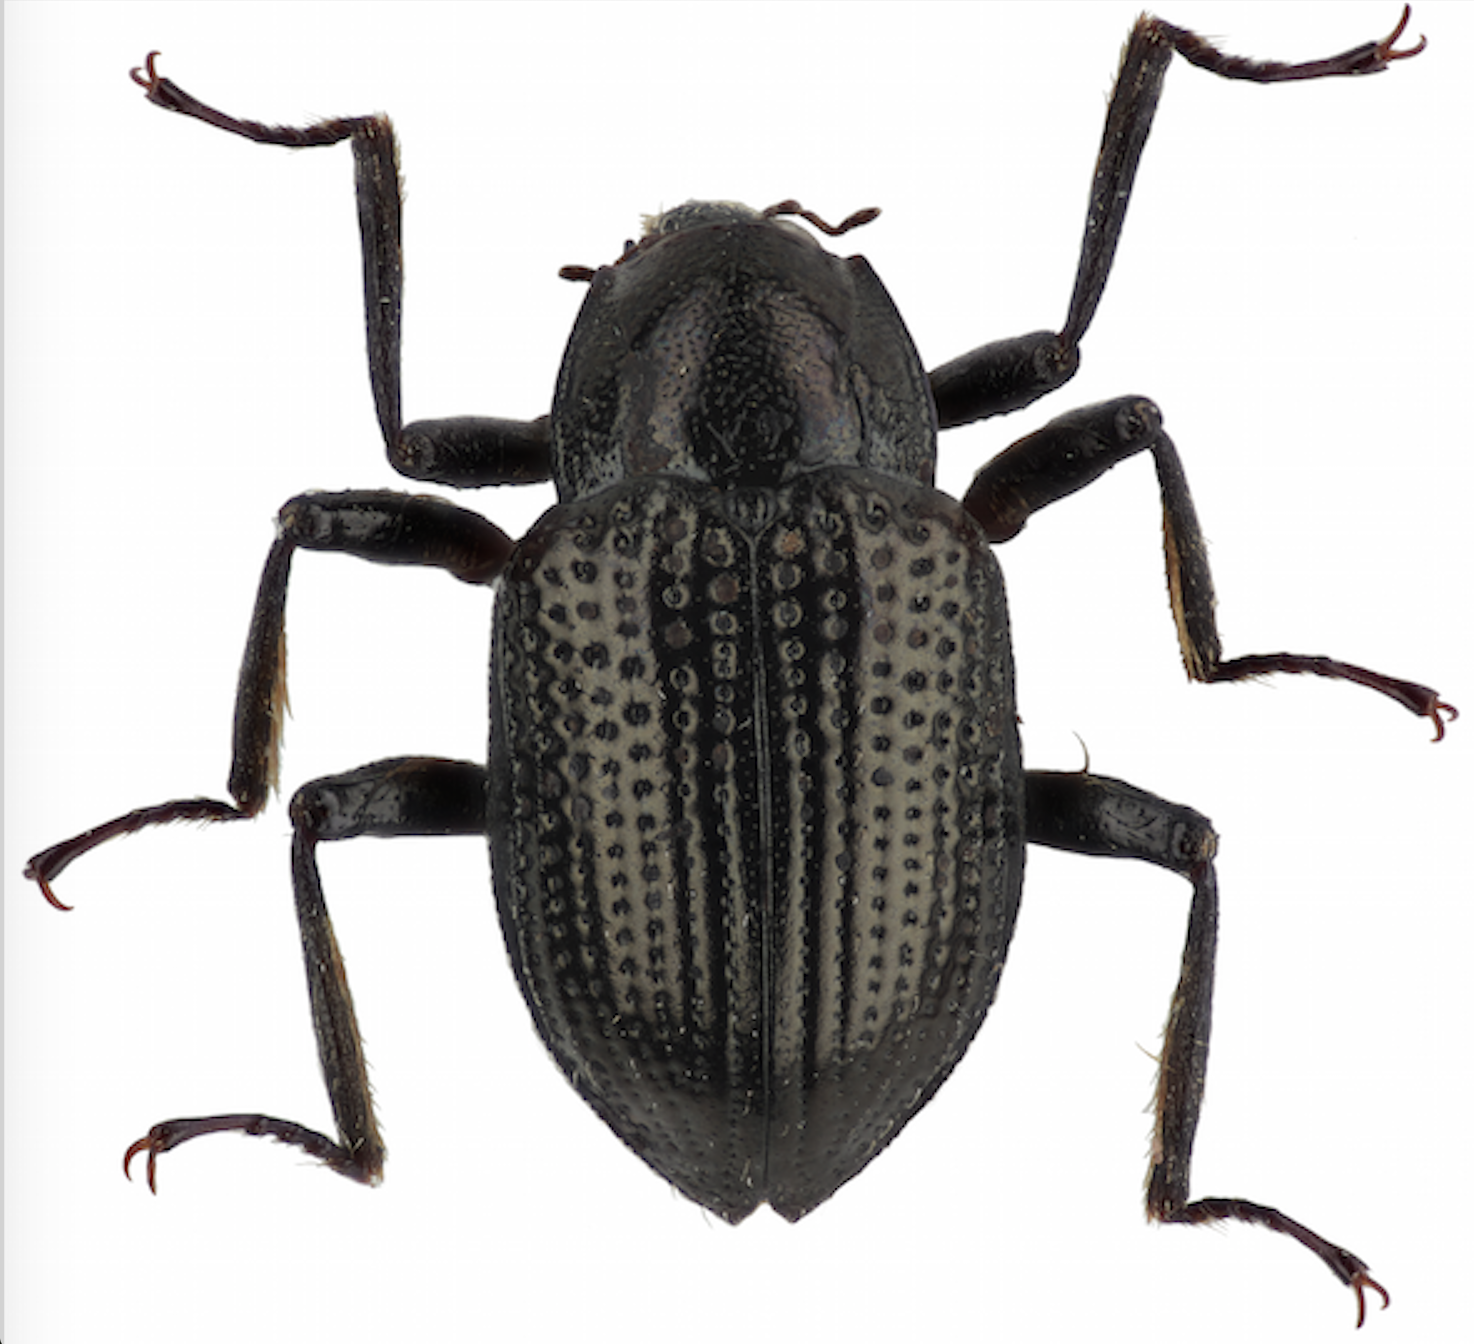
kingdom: Animalia
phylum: Arthropoda
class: Insecta
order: Coleoptera
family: Elmidae
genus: Grouvellinus
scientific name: Grouvellinus leonardodicaprioi
